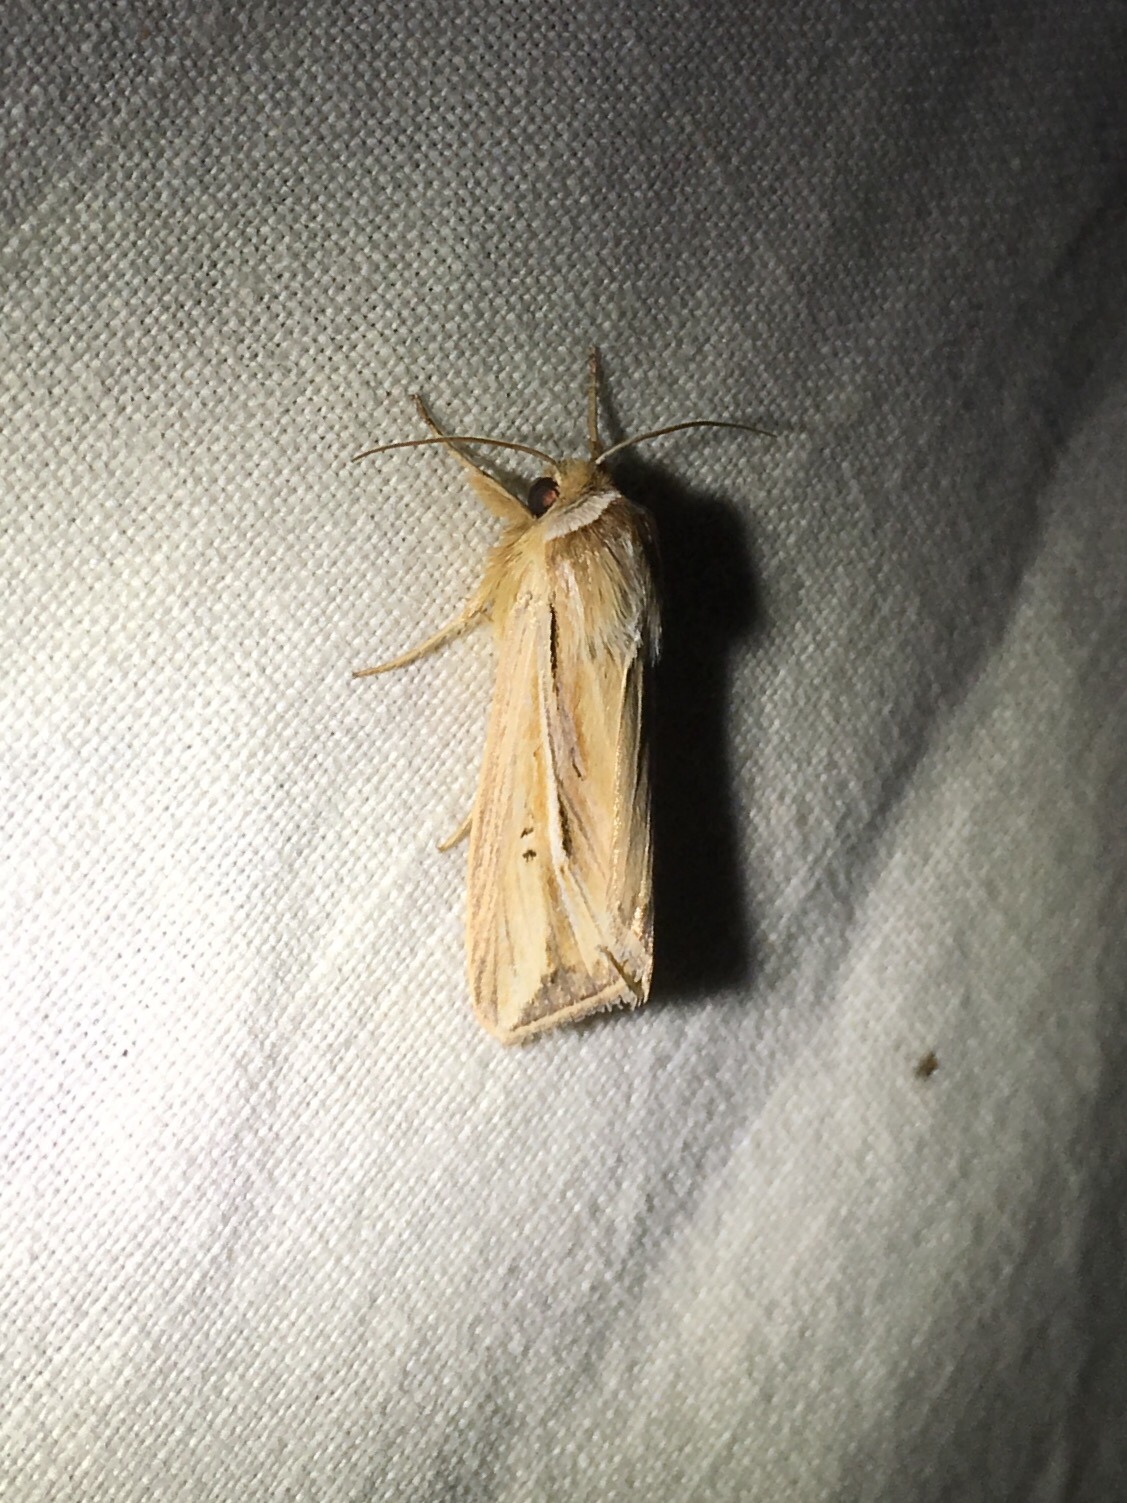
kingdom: Animalia
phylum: Arthropoda
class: Insecta
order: Lepidoptera
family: Noctuidae
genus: Dargida
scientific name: Dargida diffusa
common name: Wheat head armyworm
